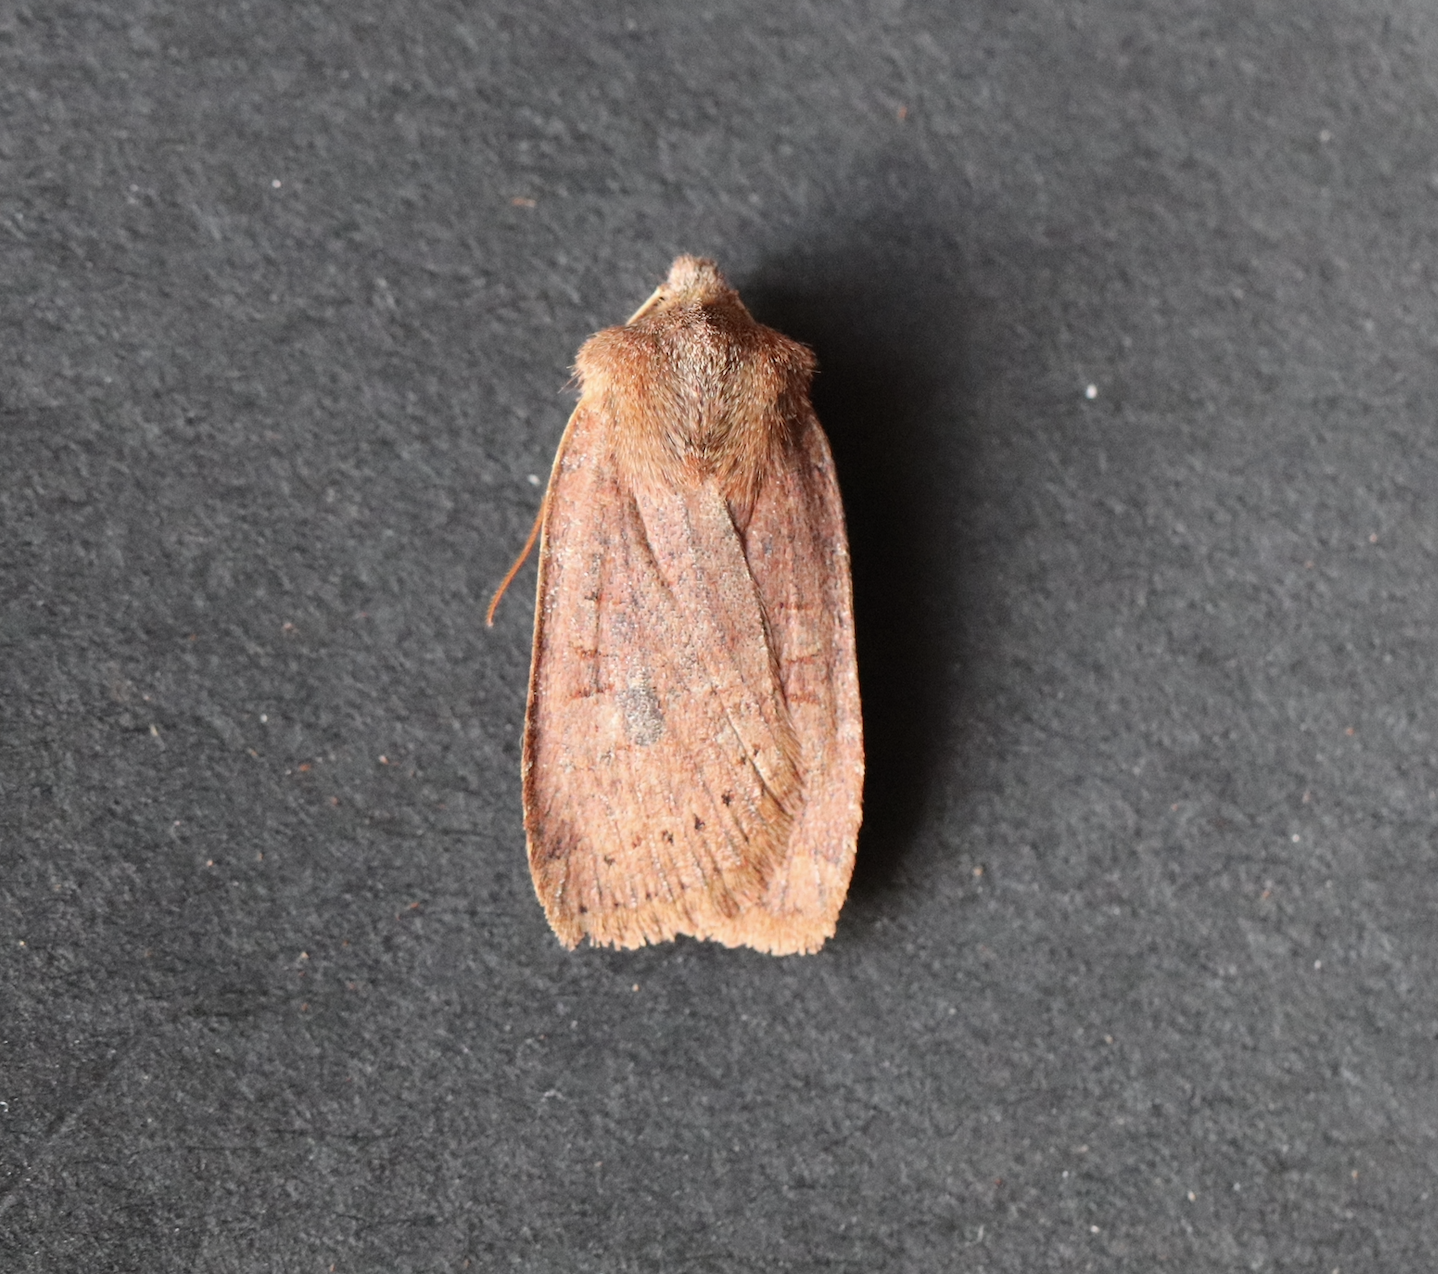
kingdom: Animalia
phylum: Arthropoda
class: Insecta
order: Lepidoptera
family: Noctuidae
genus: Conistra
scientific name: Conistra vaccinii
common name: Chestnut
